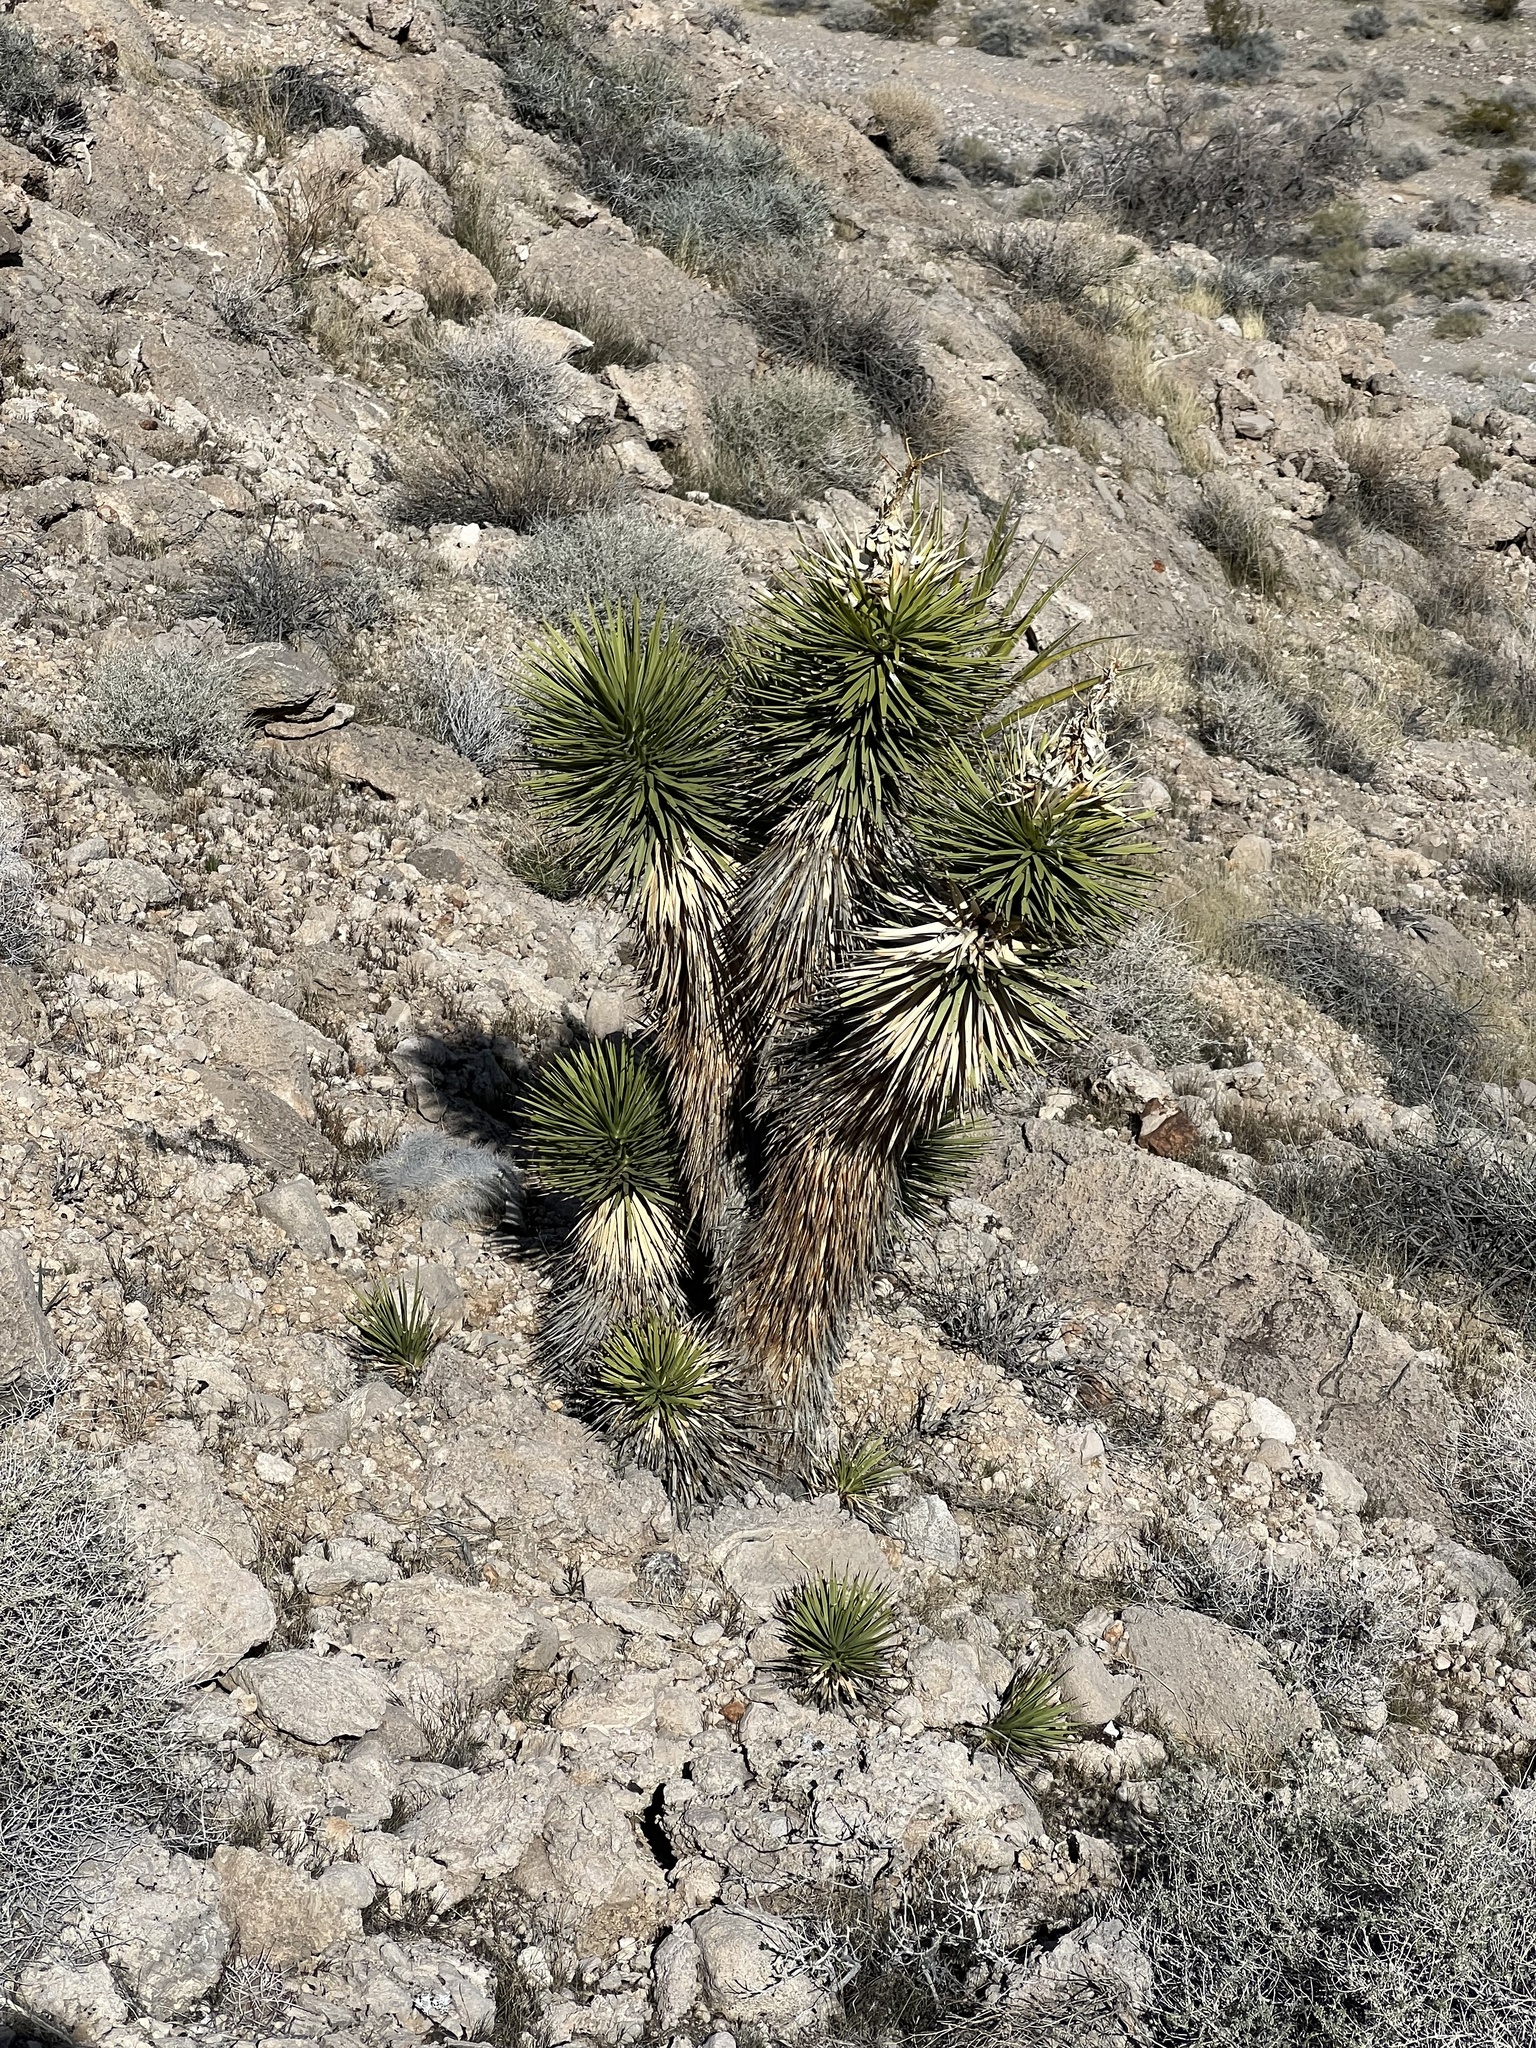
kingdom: Plantae
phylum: Tracheophyta
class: Liliopsida
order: Asparagales
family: Asparagaceae
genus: Yucca
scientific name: Yucca brevifolia
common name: Joshua tree
